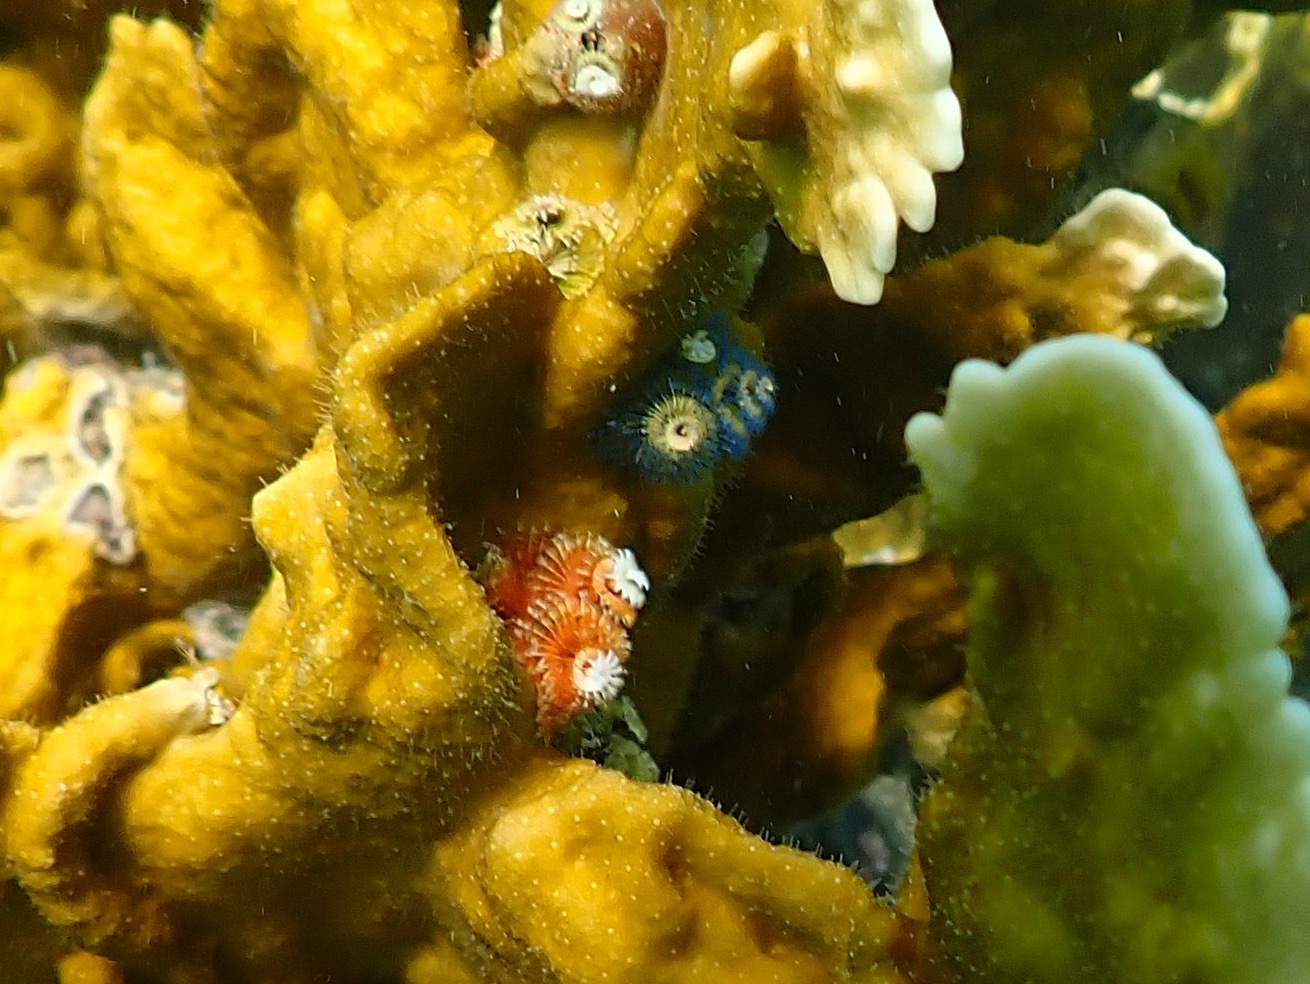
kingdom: Animalia
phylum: Annelida
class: Polychaeta
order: Sabellida
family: Serpulidae
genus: Spirobranchus
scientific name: Spirobranchus giganteus
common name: Christmas tree worm
